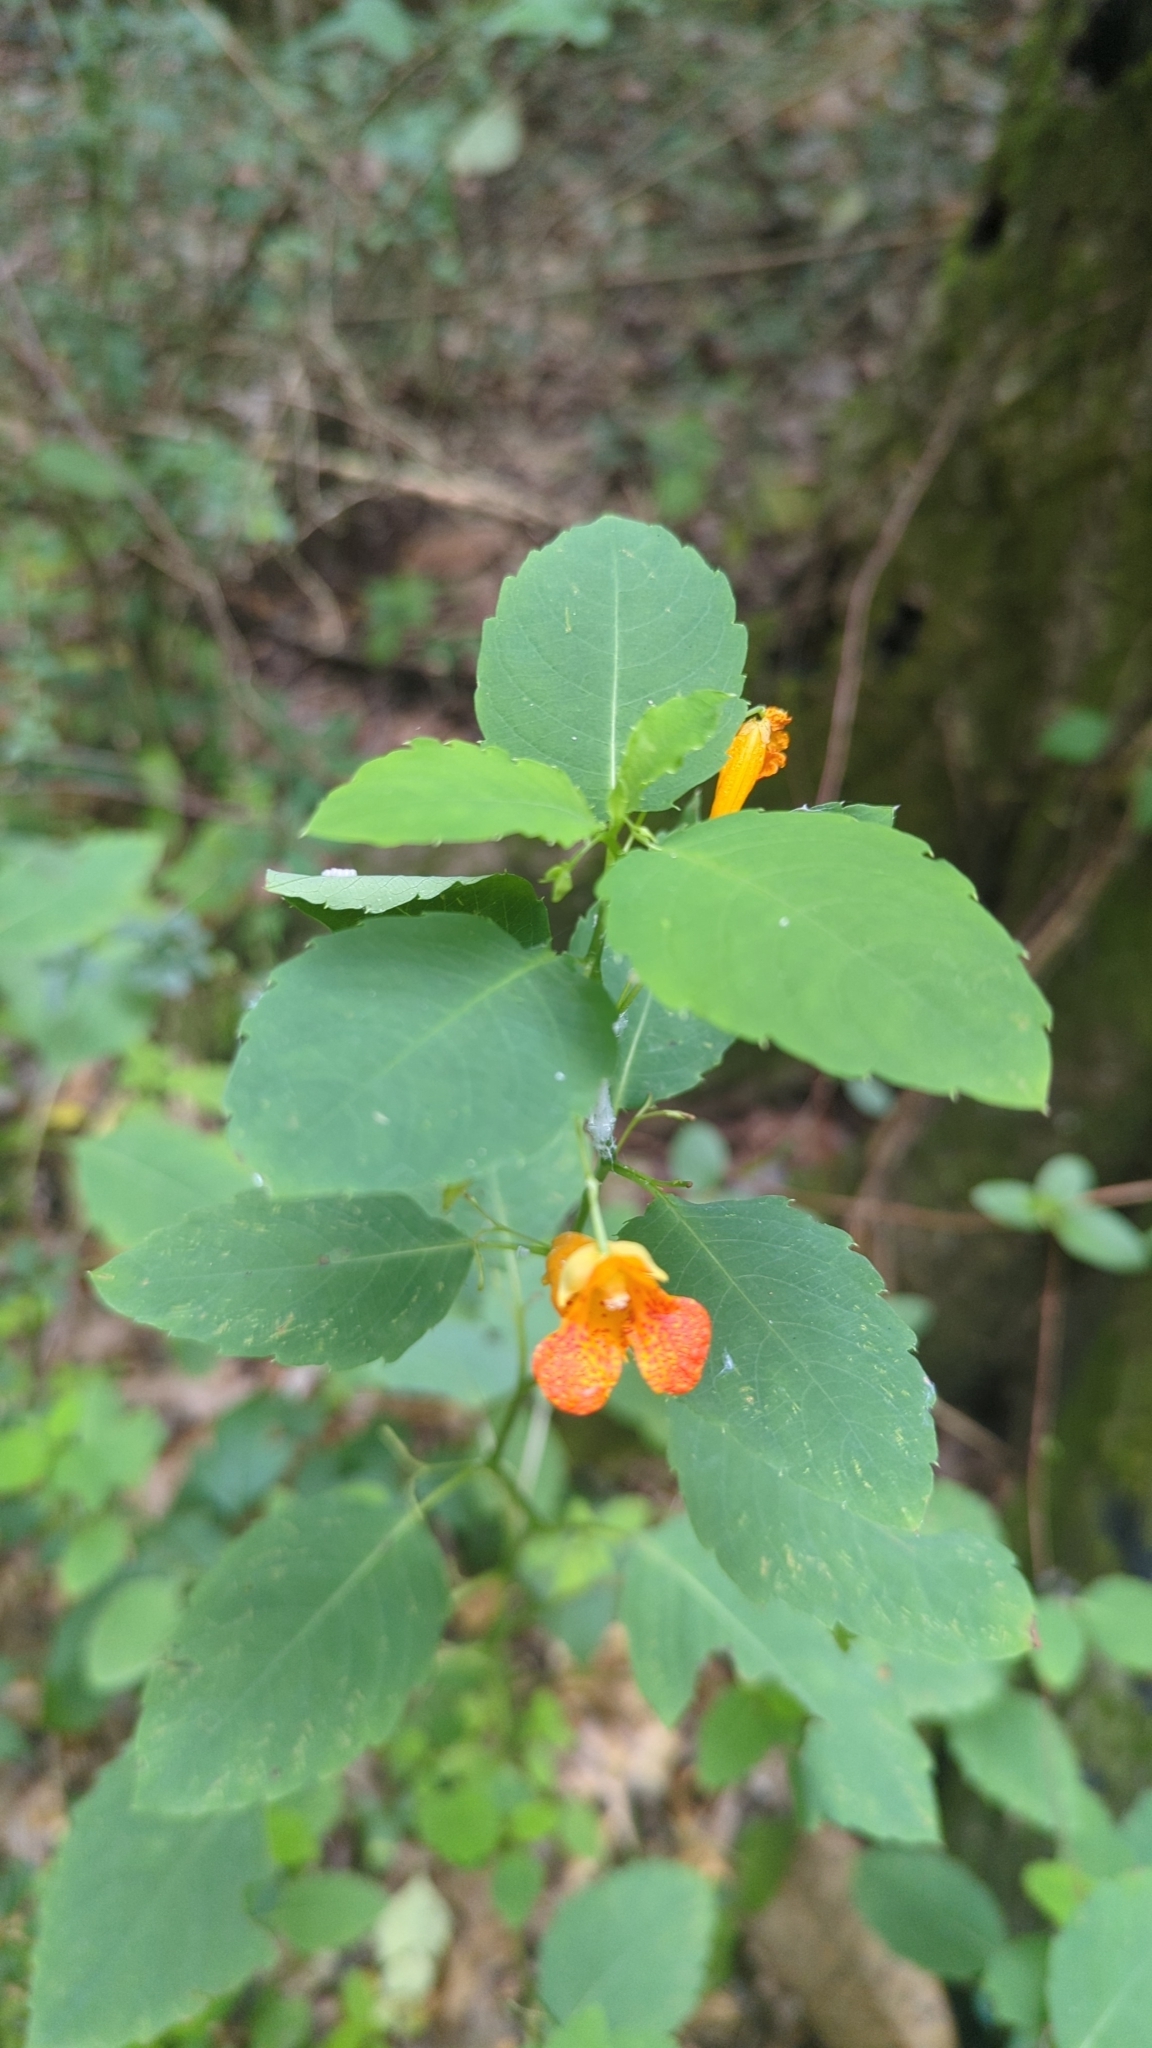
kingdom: Plantae
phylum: Tracheophyta
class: Magnoliopsida
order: Ericales
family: Balsaminaceae
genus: Impatiens
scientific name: Impatiens capensis
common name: Orange balsam
